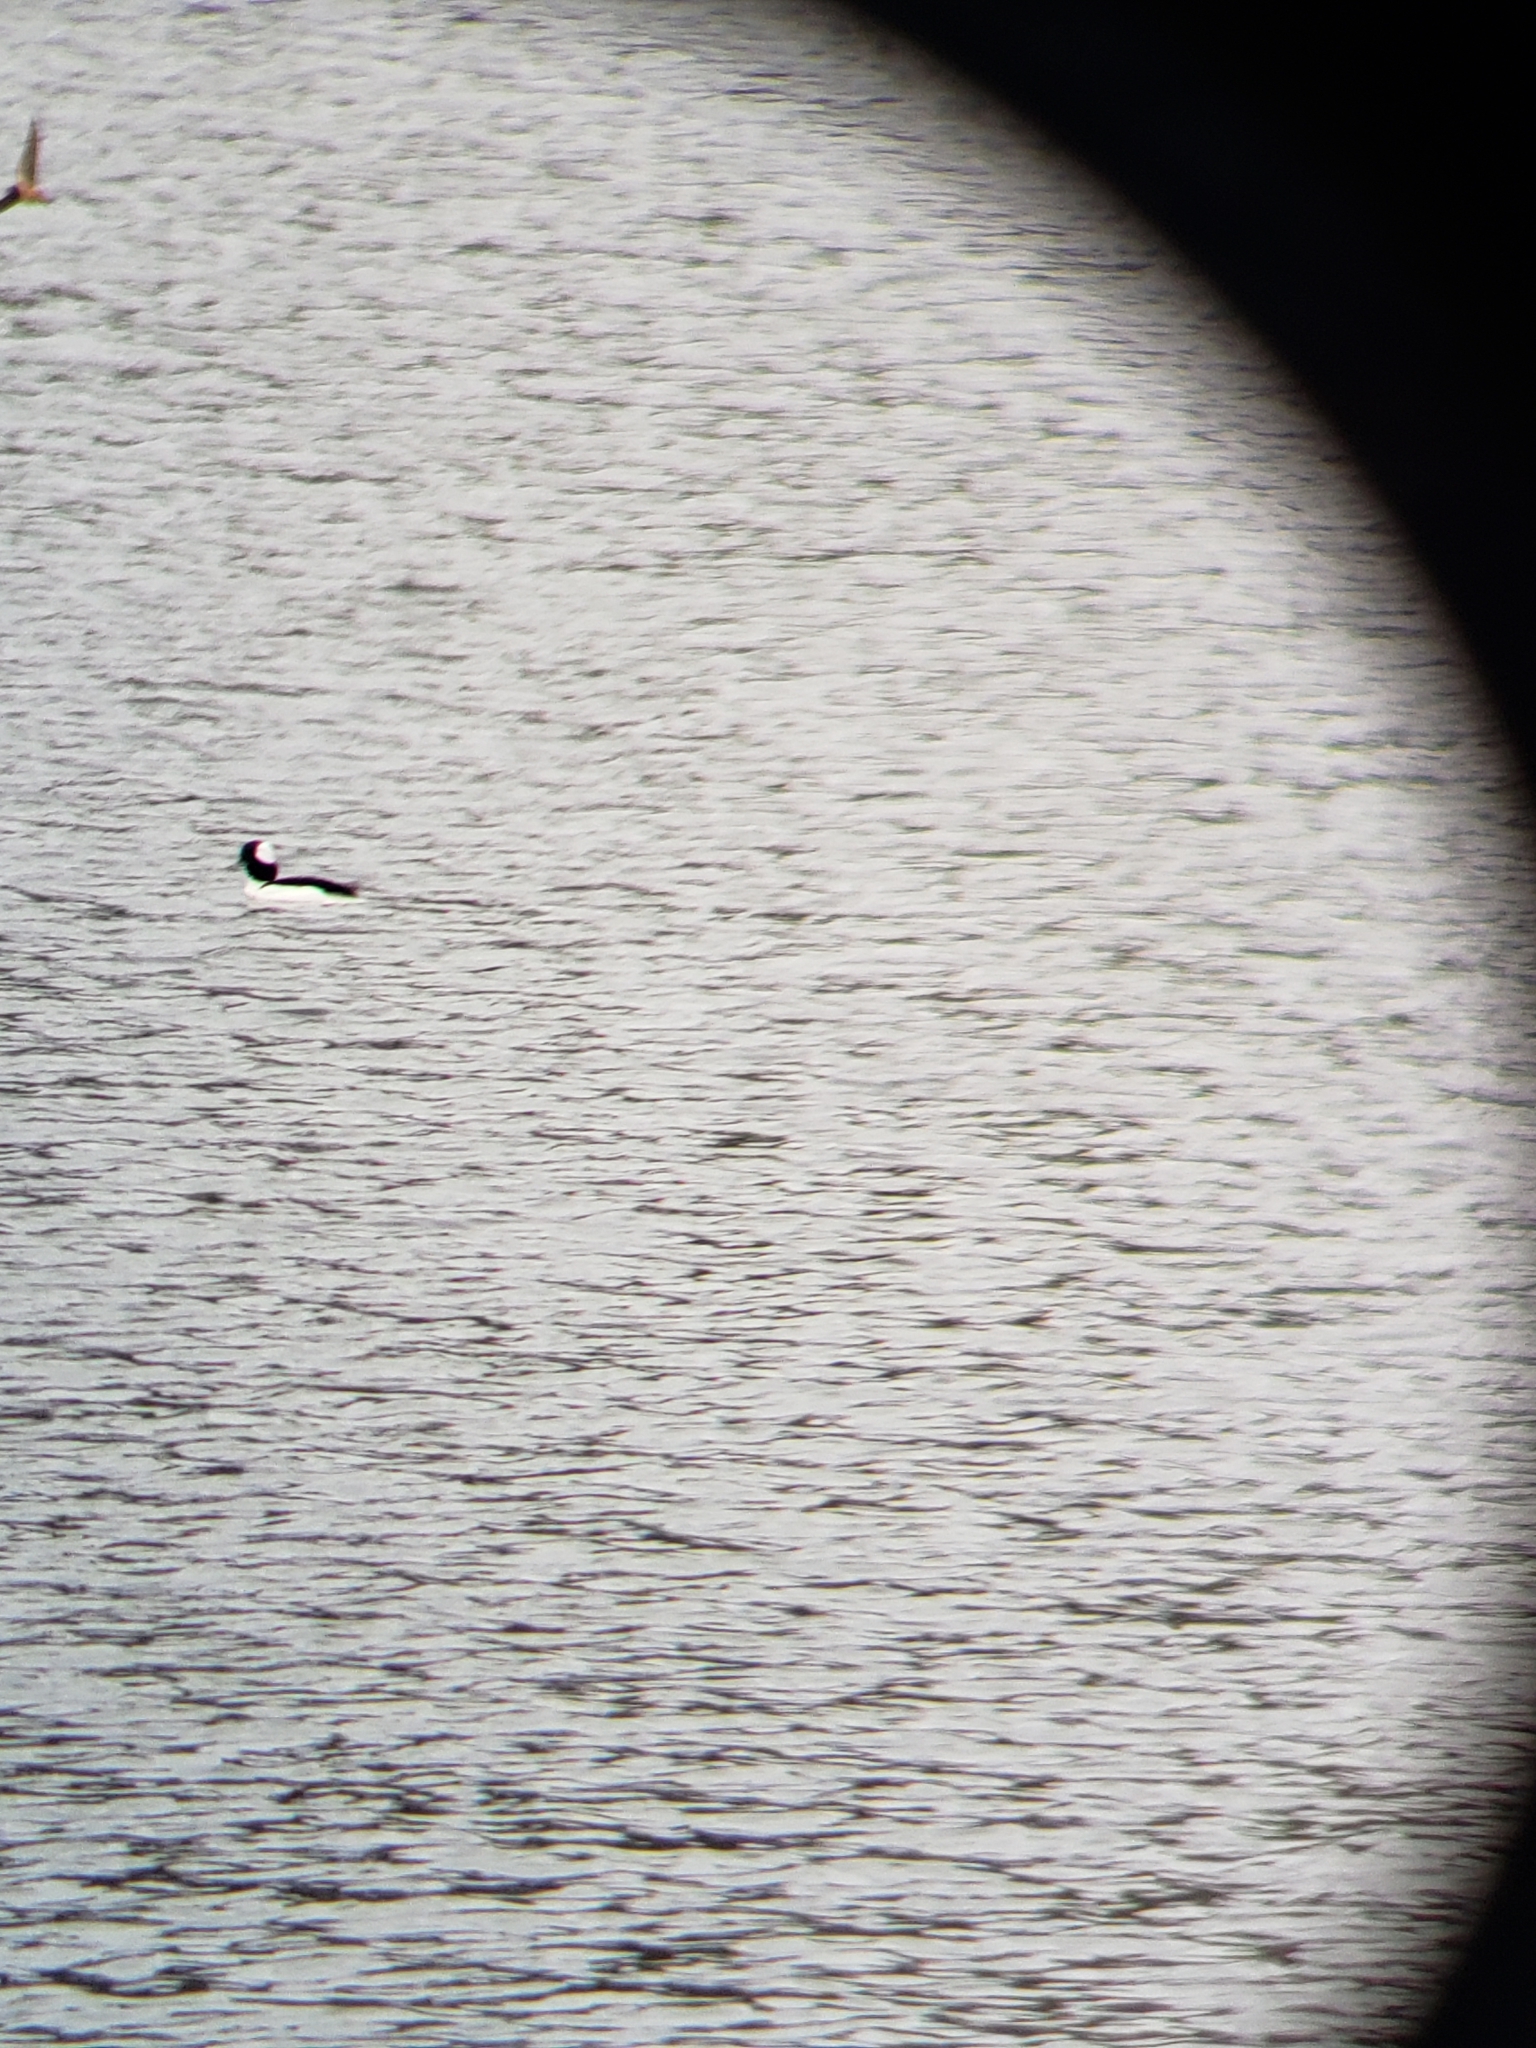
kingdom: Animalia
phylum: Chordata
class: Aves
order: Anseriformes
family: Anatidae
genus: Bucephala
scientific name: Bucephala albeola
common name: Bufflehead
